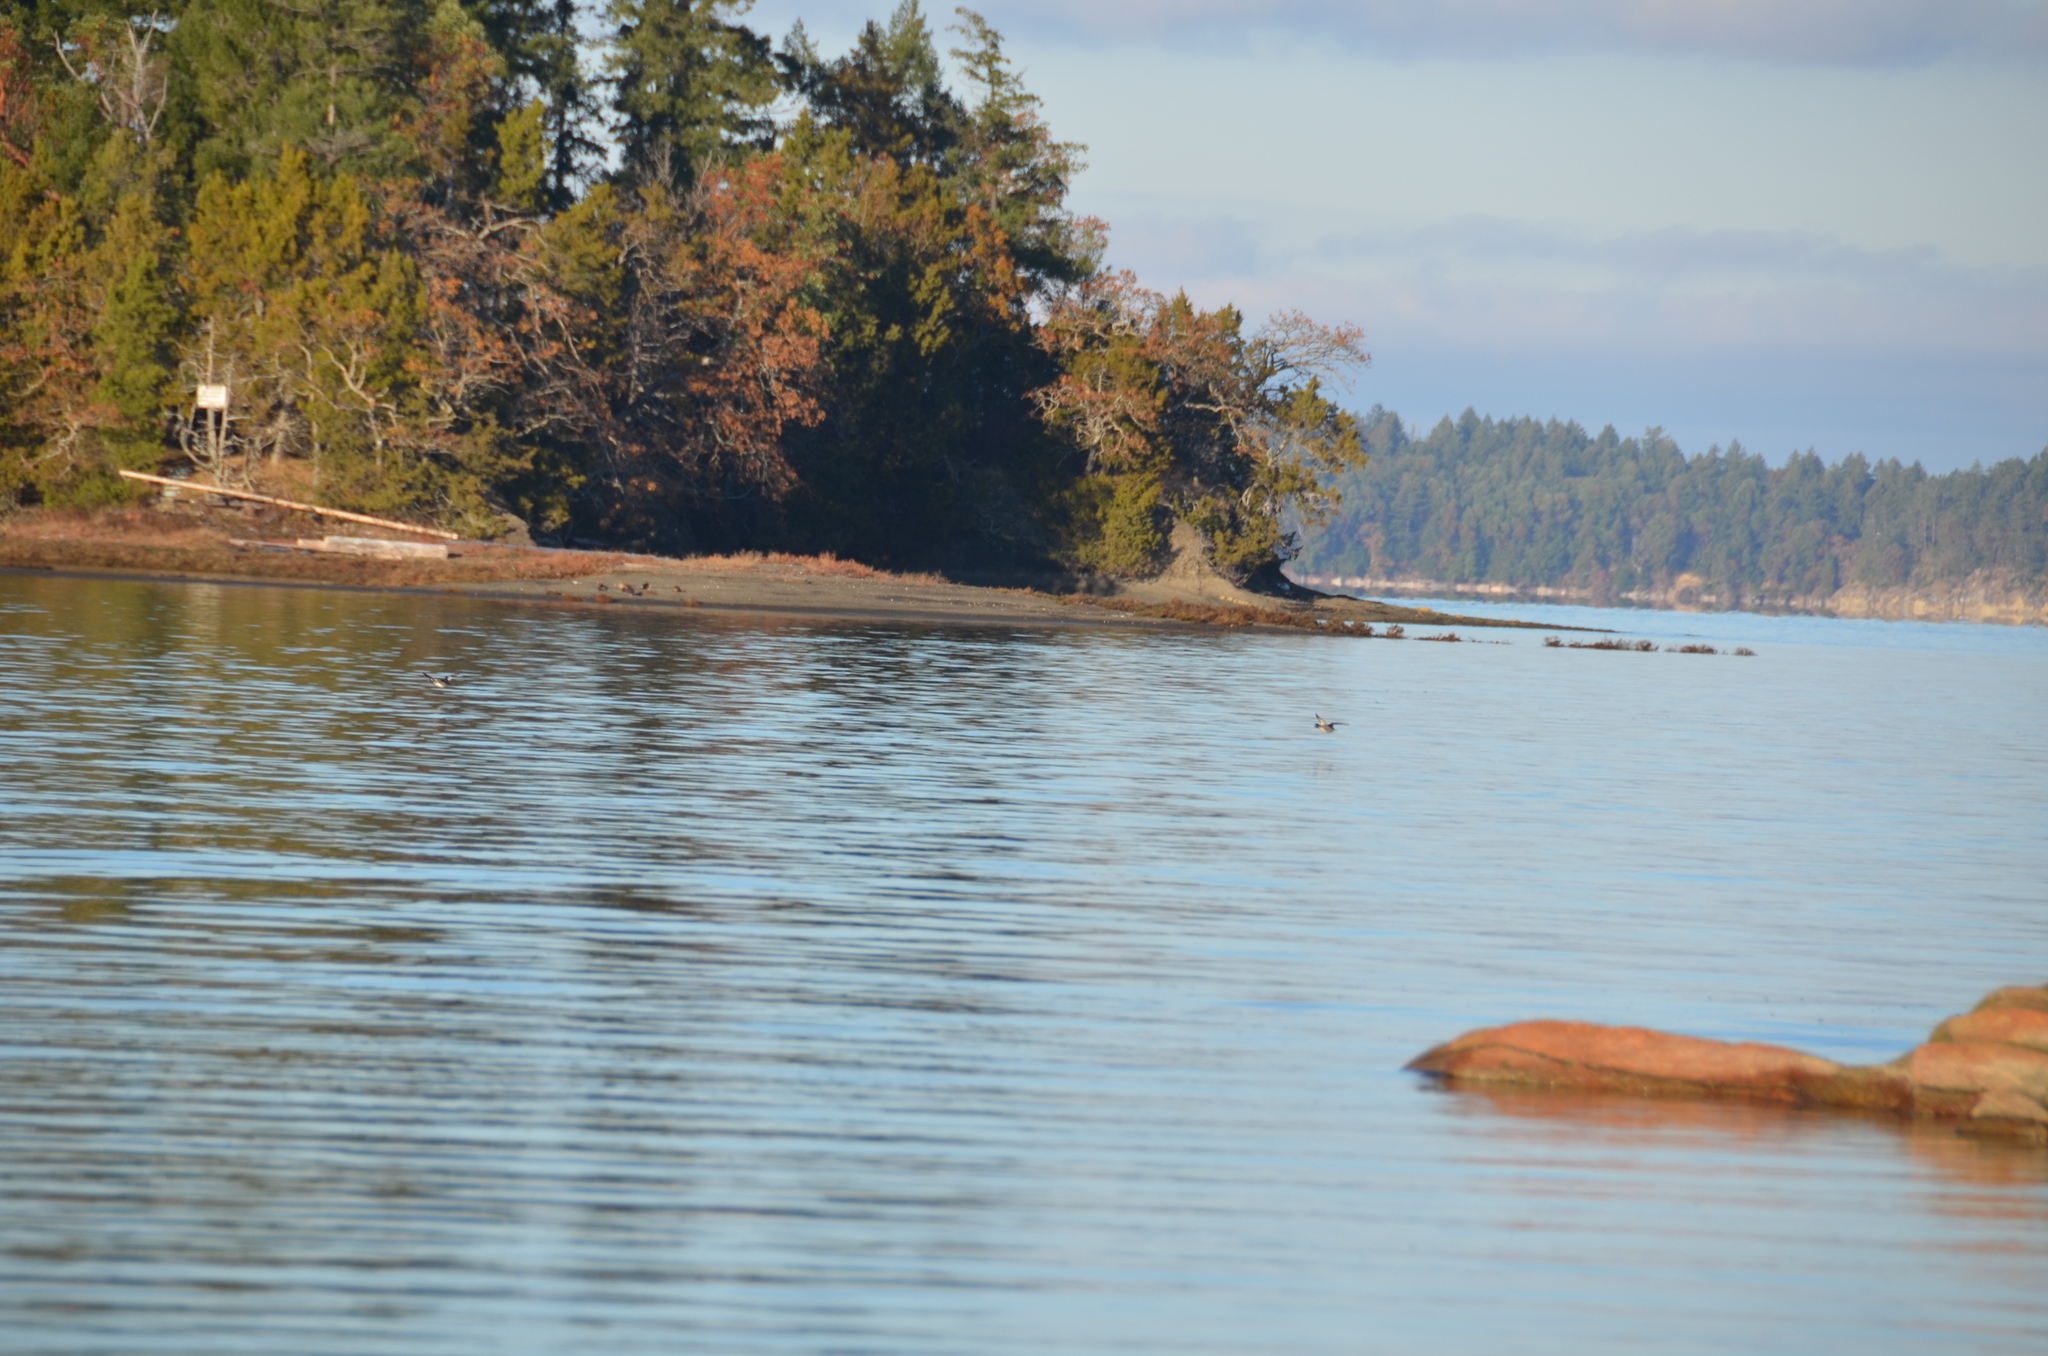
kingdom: Animalia
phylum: Chordata
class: Aves
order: Anseriformes
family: Anatidae
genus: Bucephala
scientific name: Bucephala albeola
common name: Bufflehead
